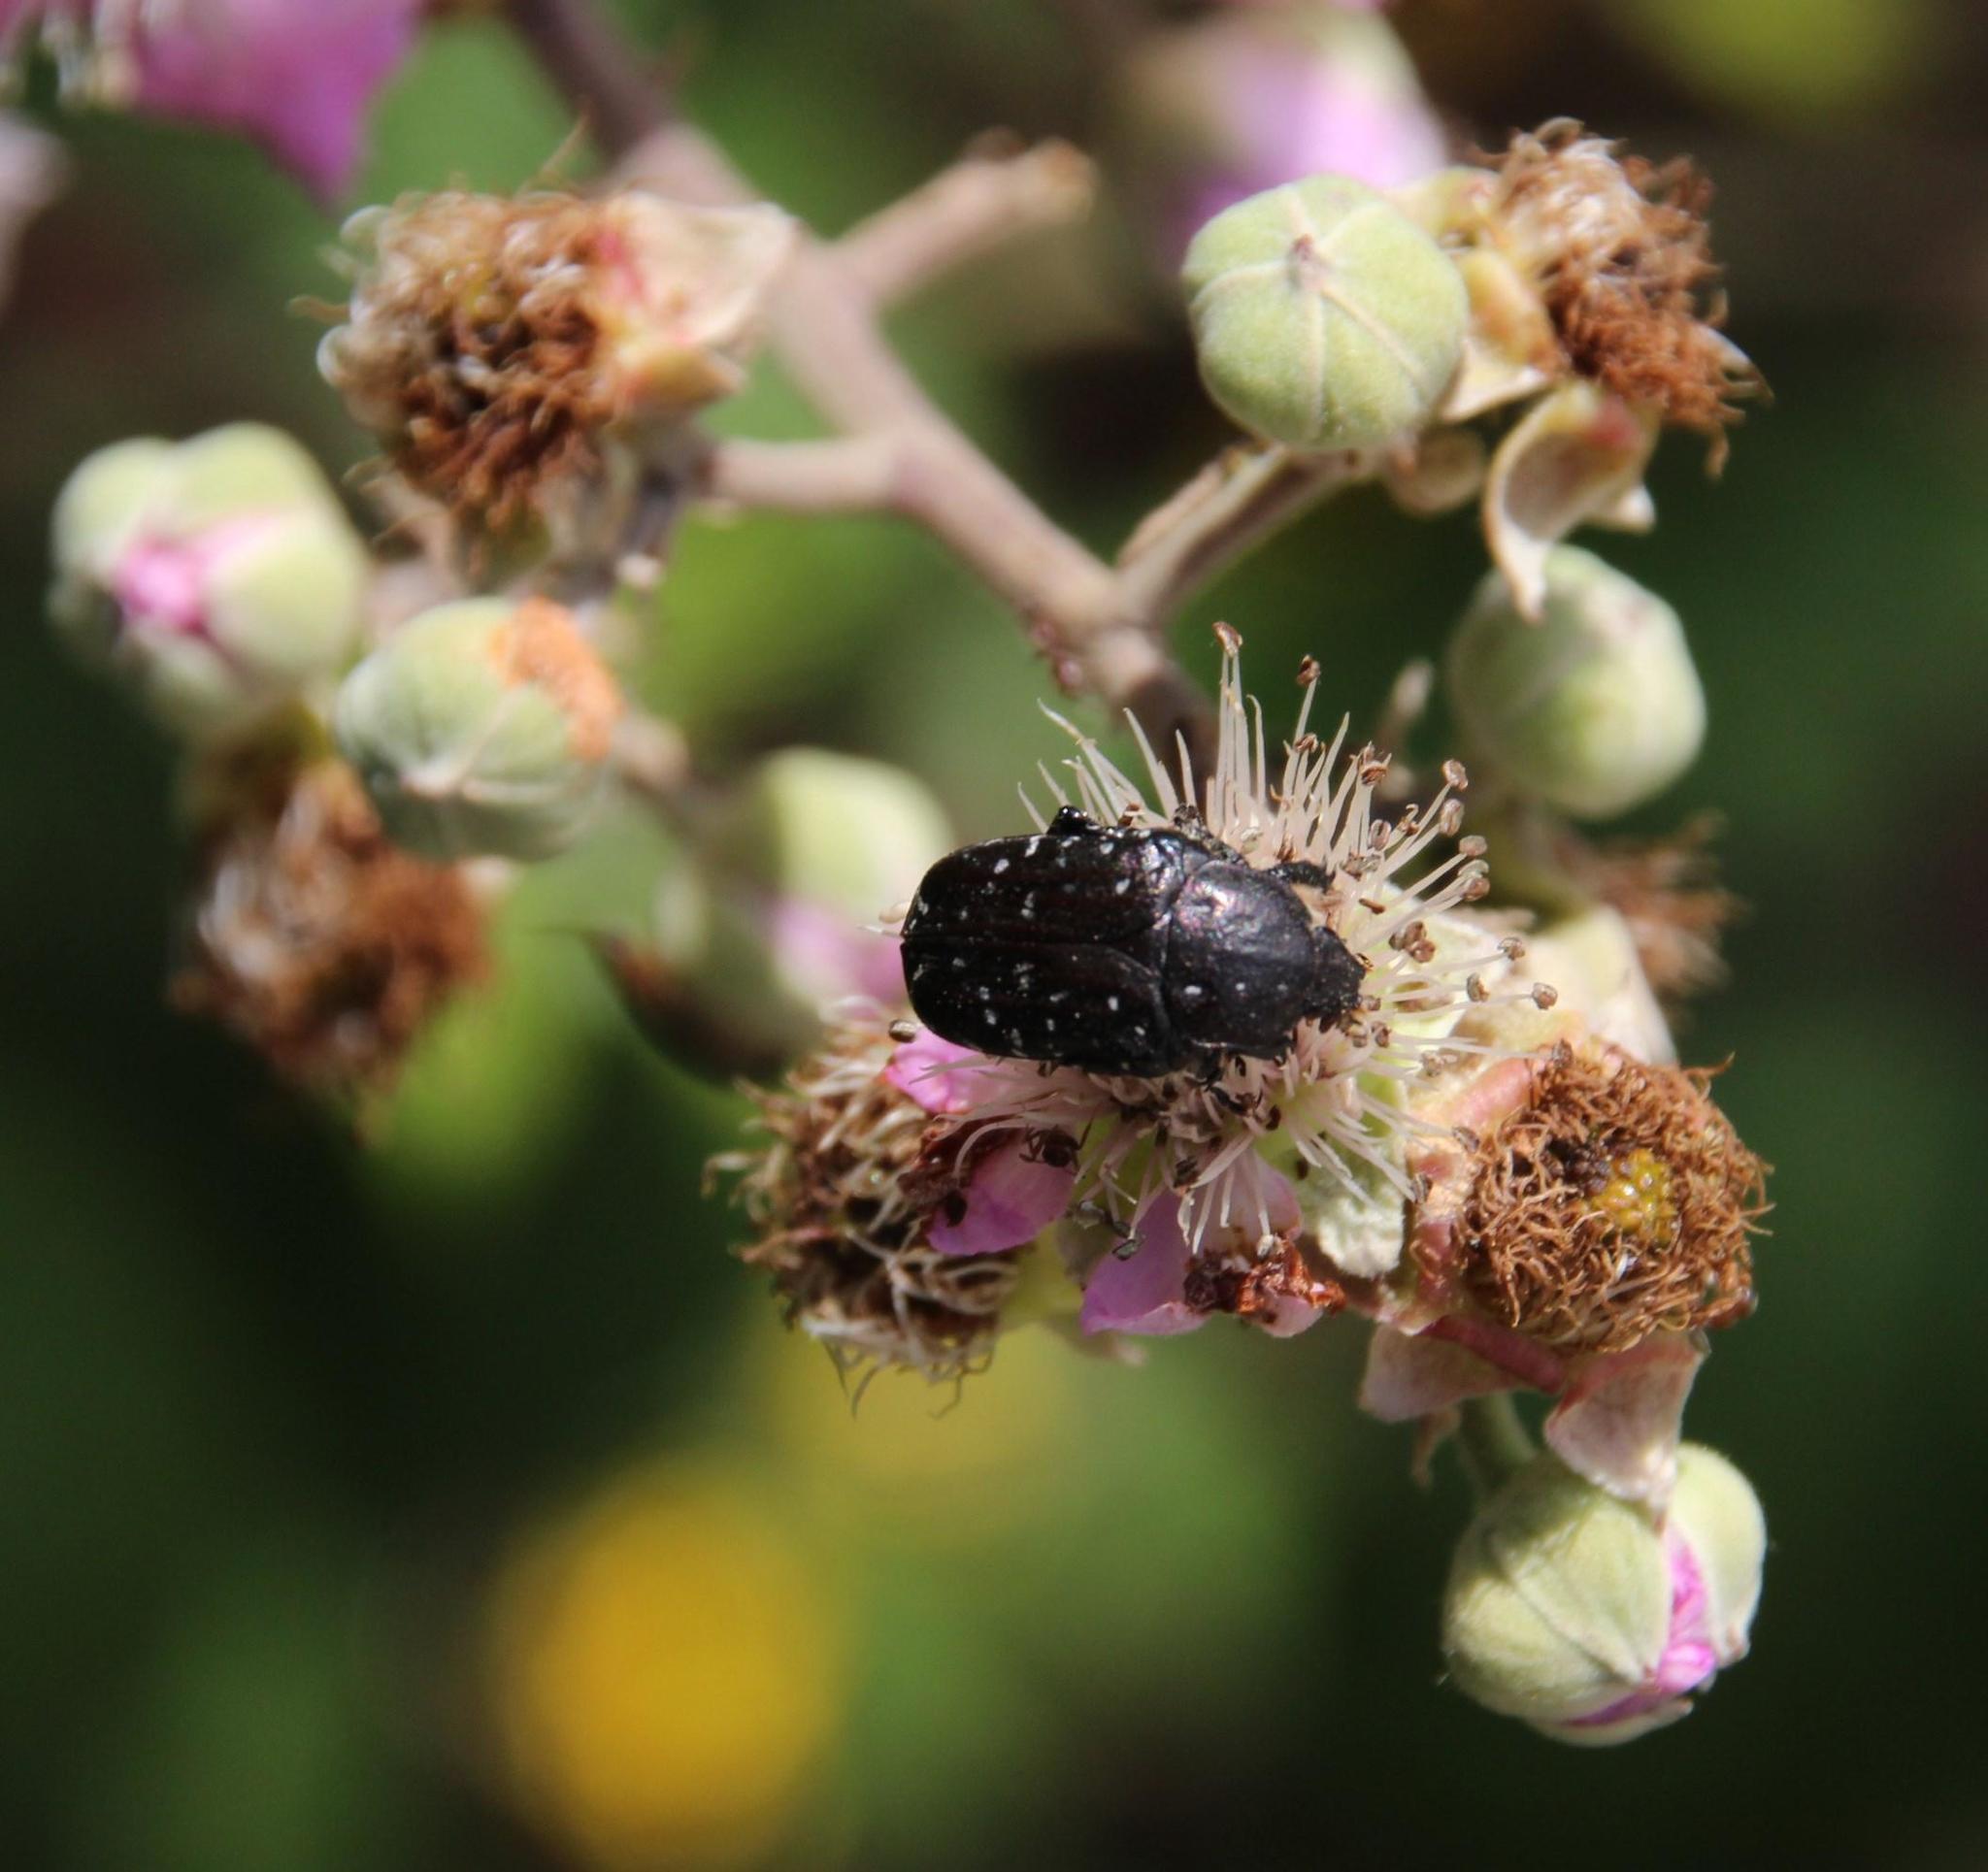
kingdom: Animalia
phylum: Arthropoda
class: Insecta
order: Coleoptera
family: Scarabaeidae
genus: Oxythyrea
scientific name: Oxythyrea funesta
